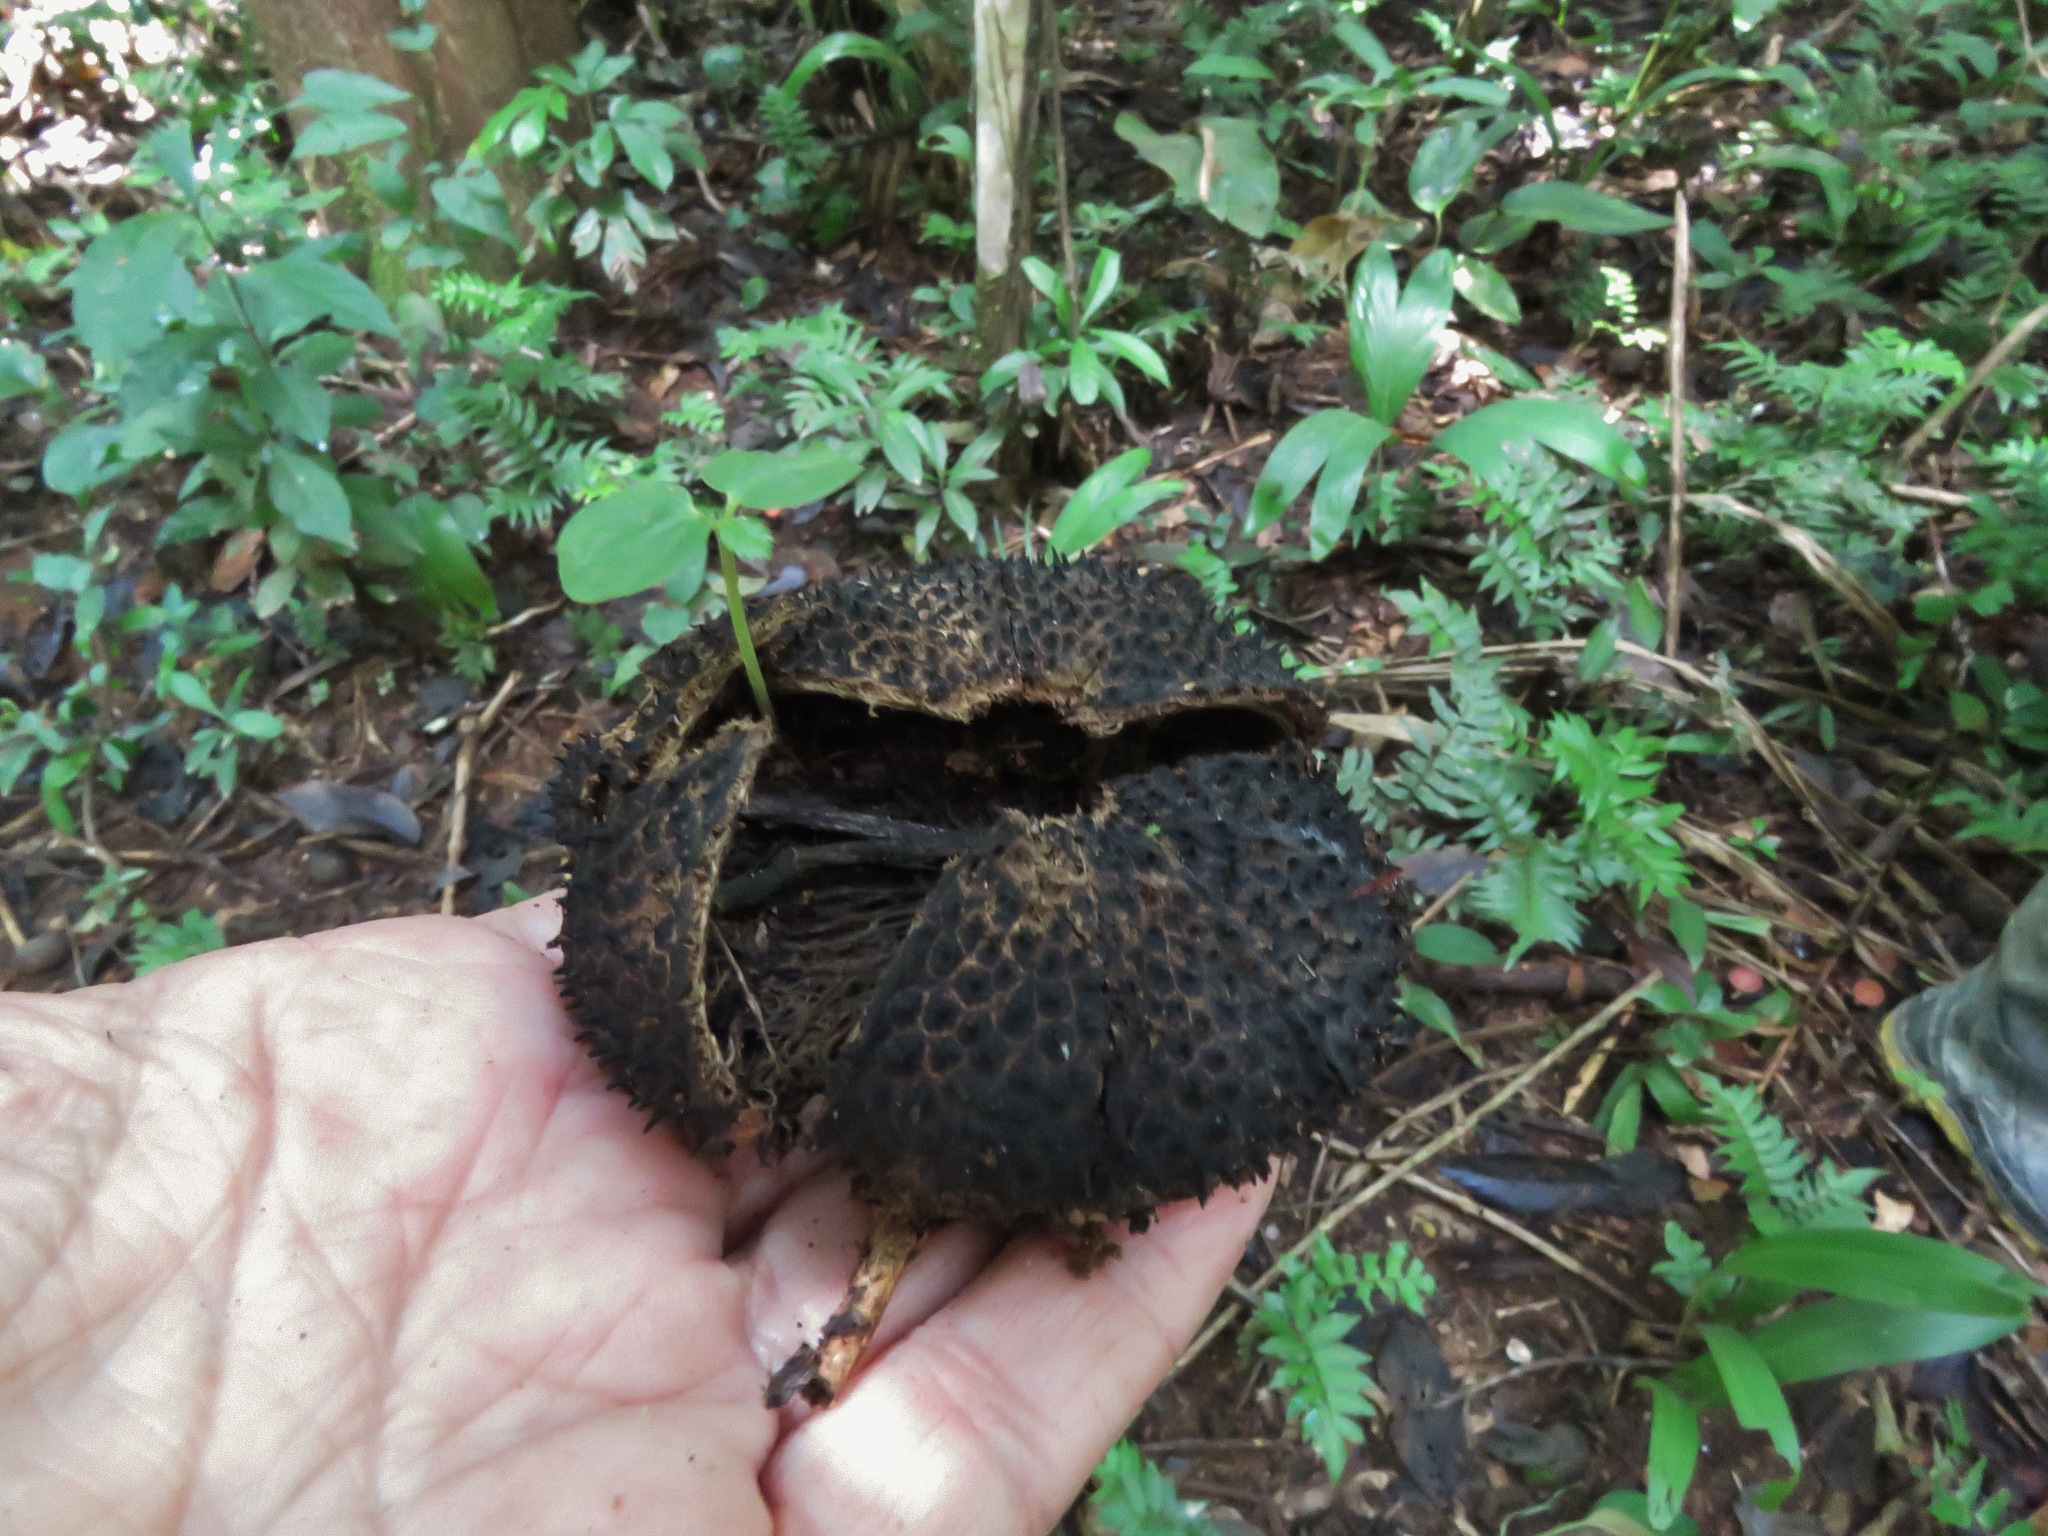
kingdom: Plantae
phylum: Tracheophyta
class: Magnoliopsida
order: Malvales
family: Malvaceae
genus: Apeiba
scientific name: Apeiba membranacea
